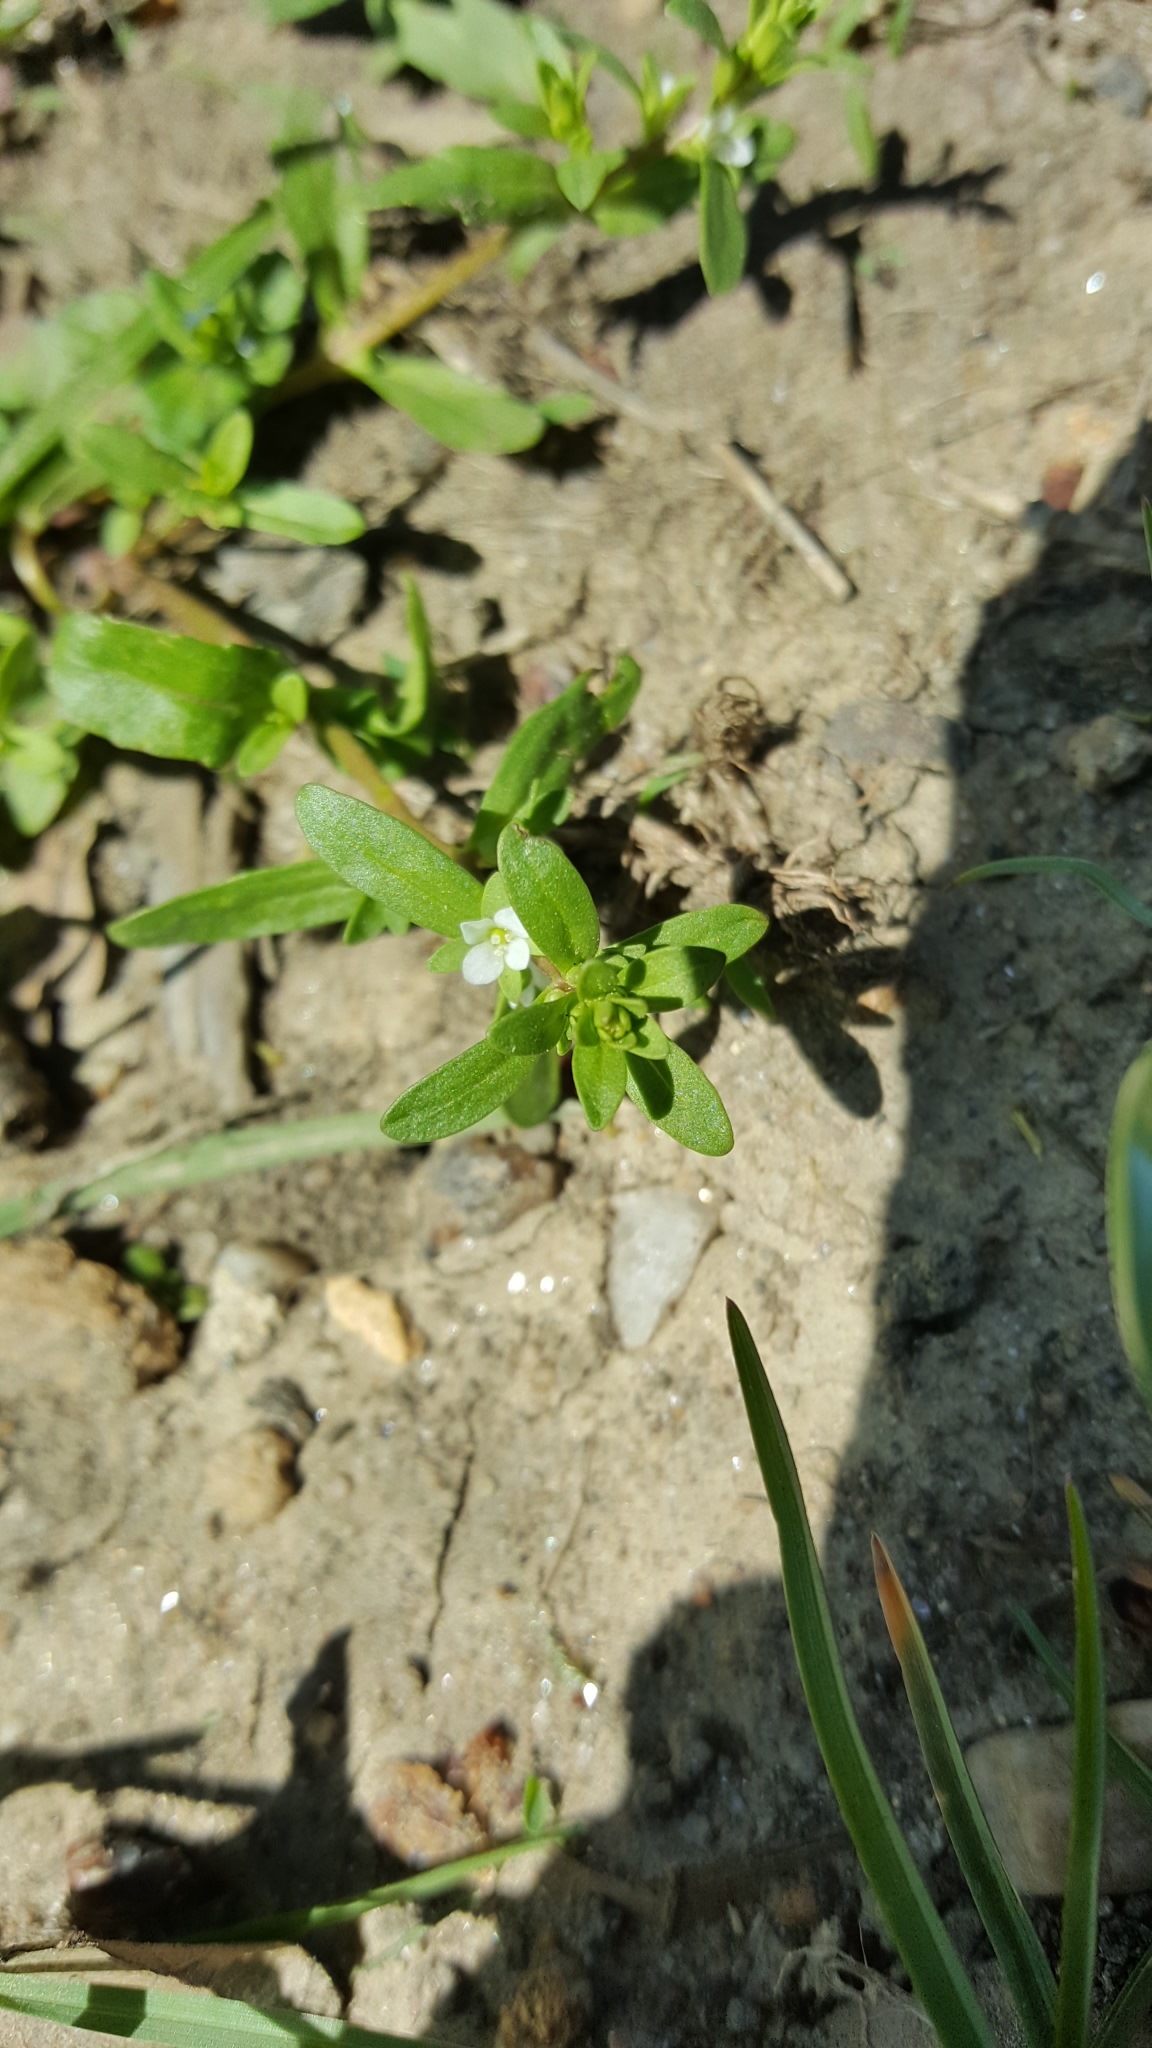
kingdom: Plantae
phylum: Tracheophyta
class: Magnoliopsida
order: Lamiales
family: Plantaginaceae
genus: Veronica
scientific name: Veronica peregrina
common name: Neckweed
